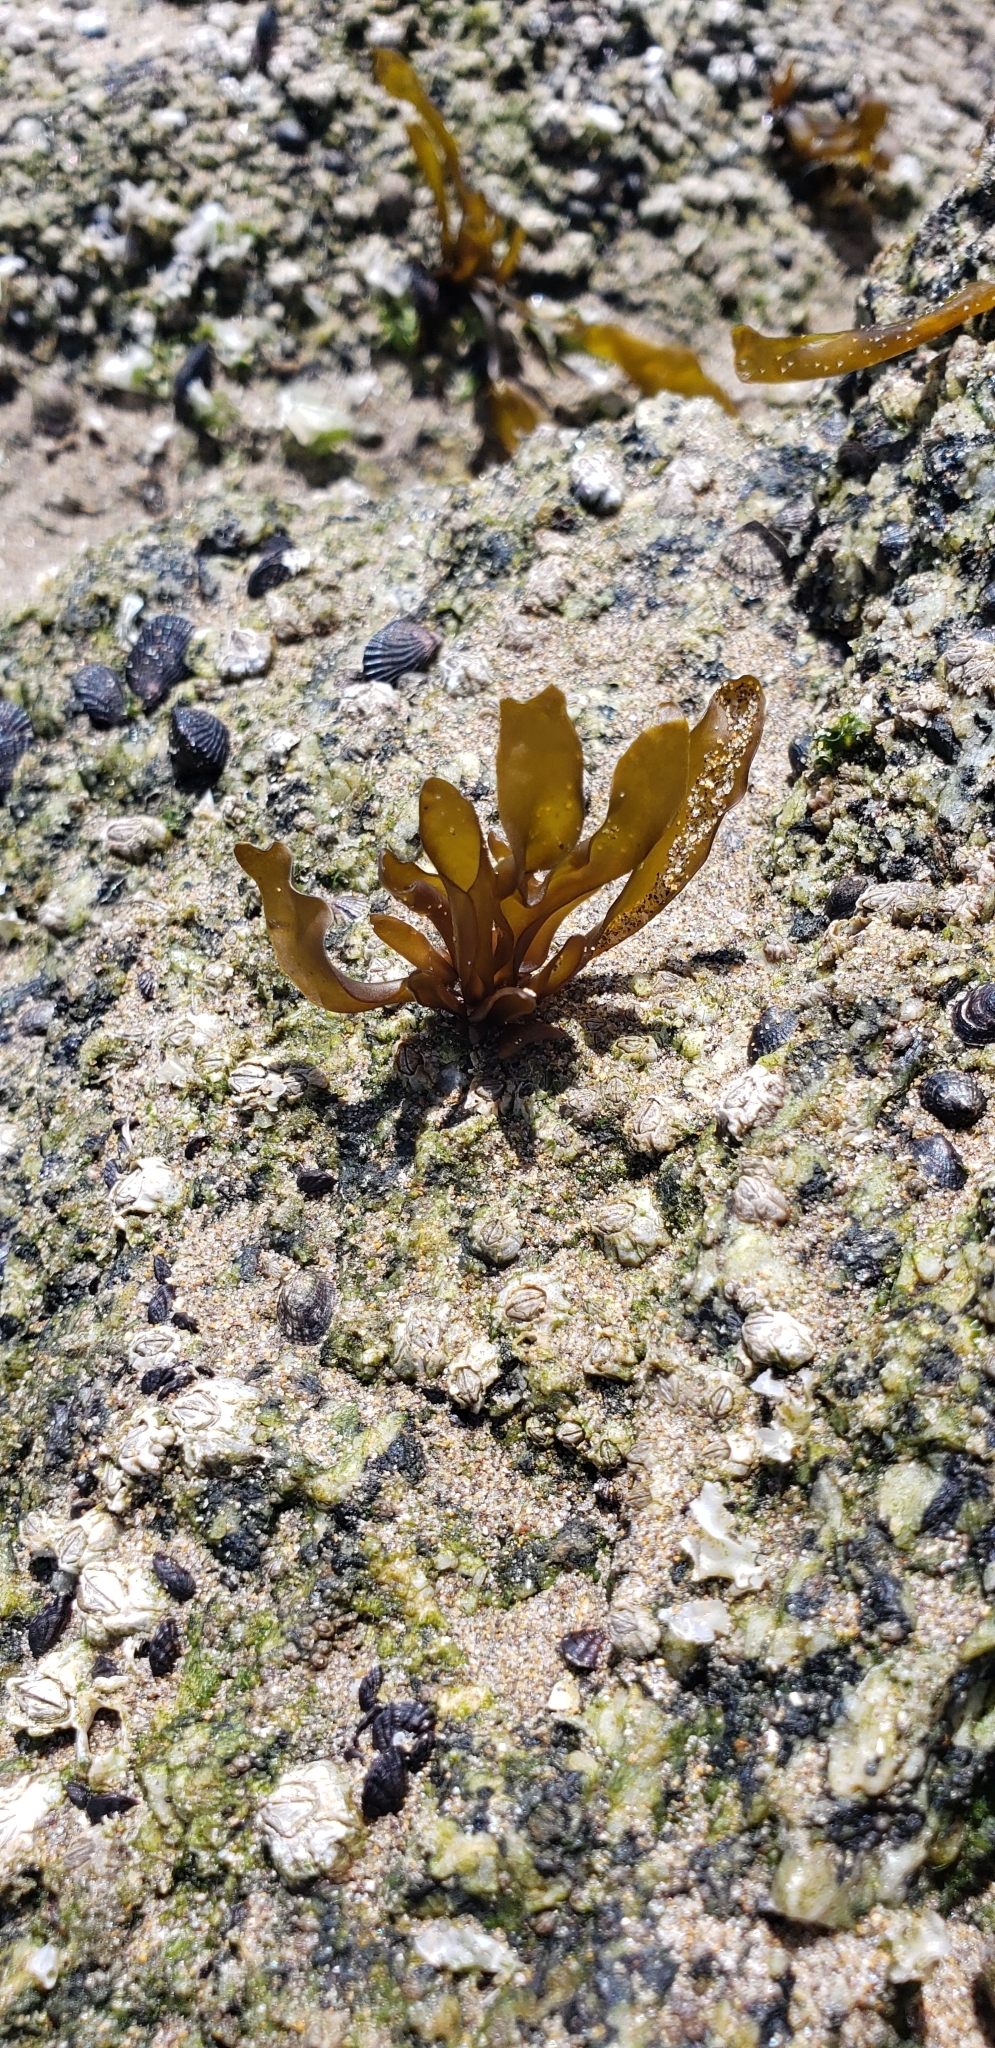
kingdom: Plantae
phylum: Rhodophyta
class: Florideophyceae
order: Gigartinales
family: Gigartinaceae
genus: Mazzaella
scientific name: Mazzaella laminarioides
